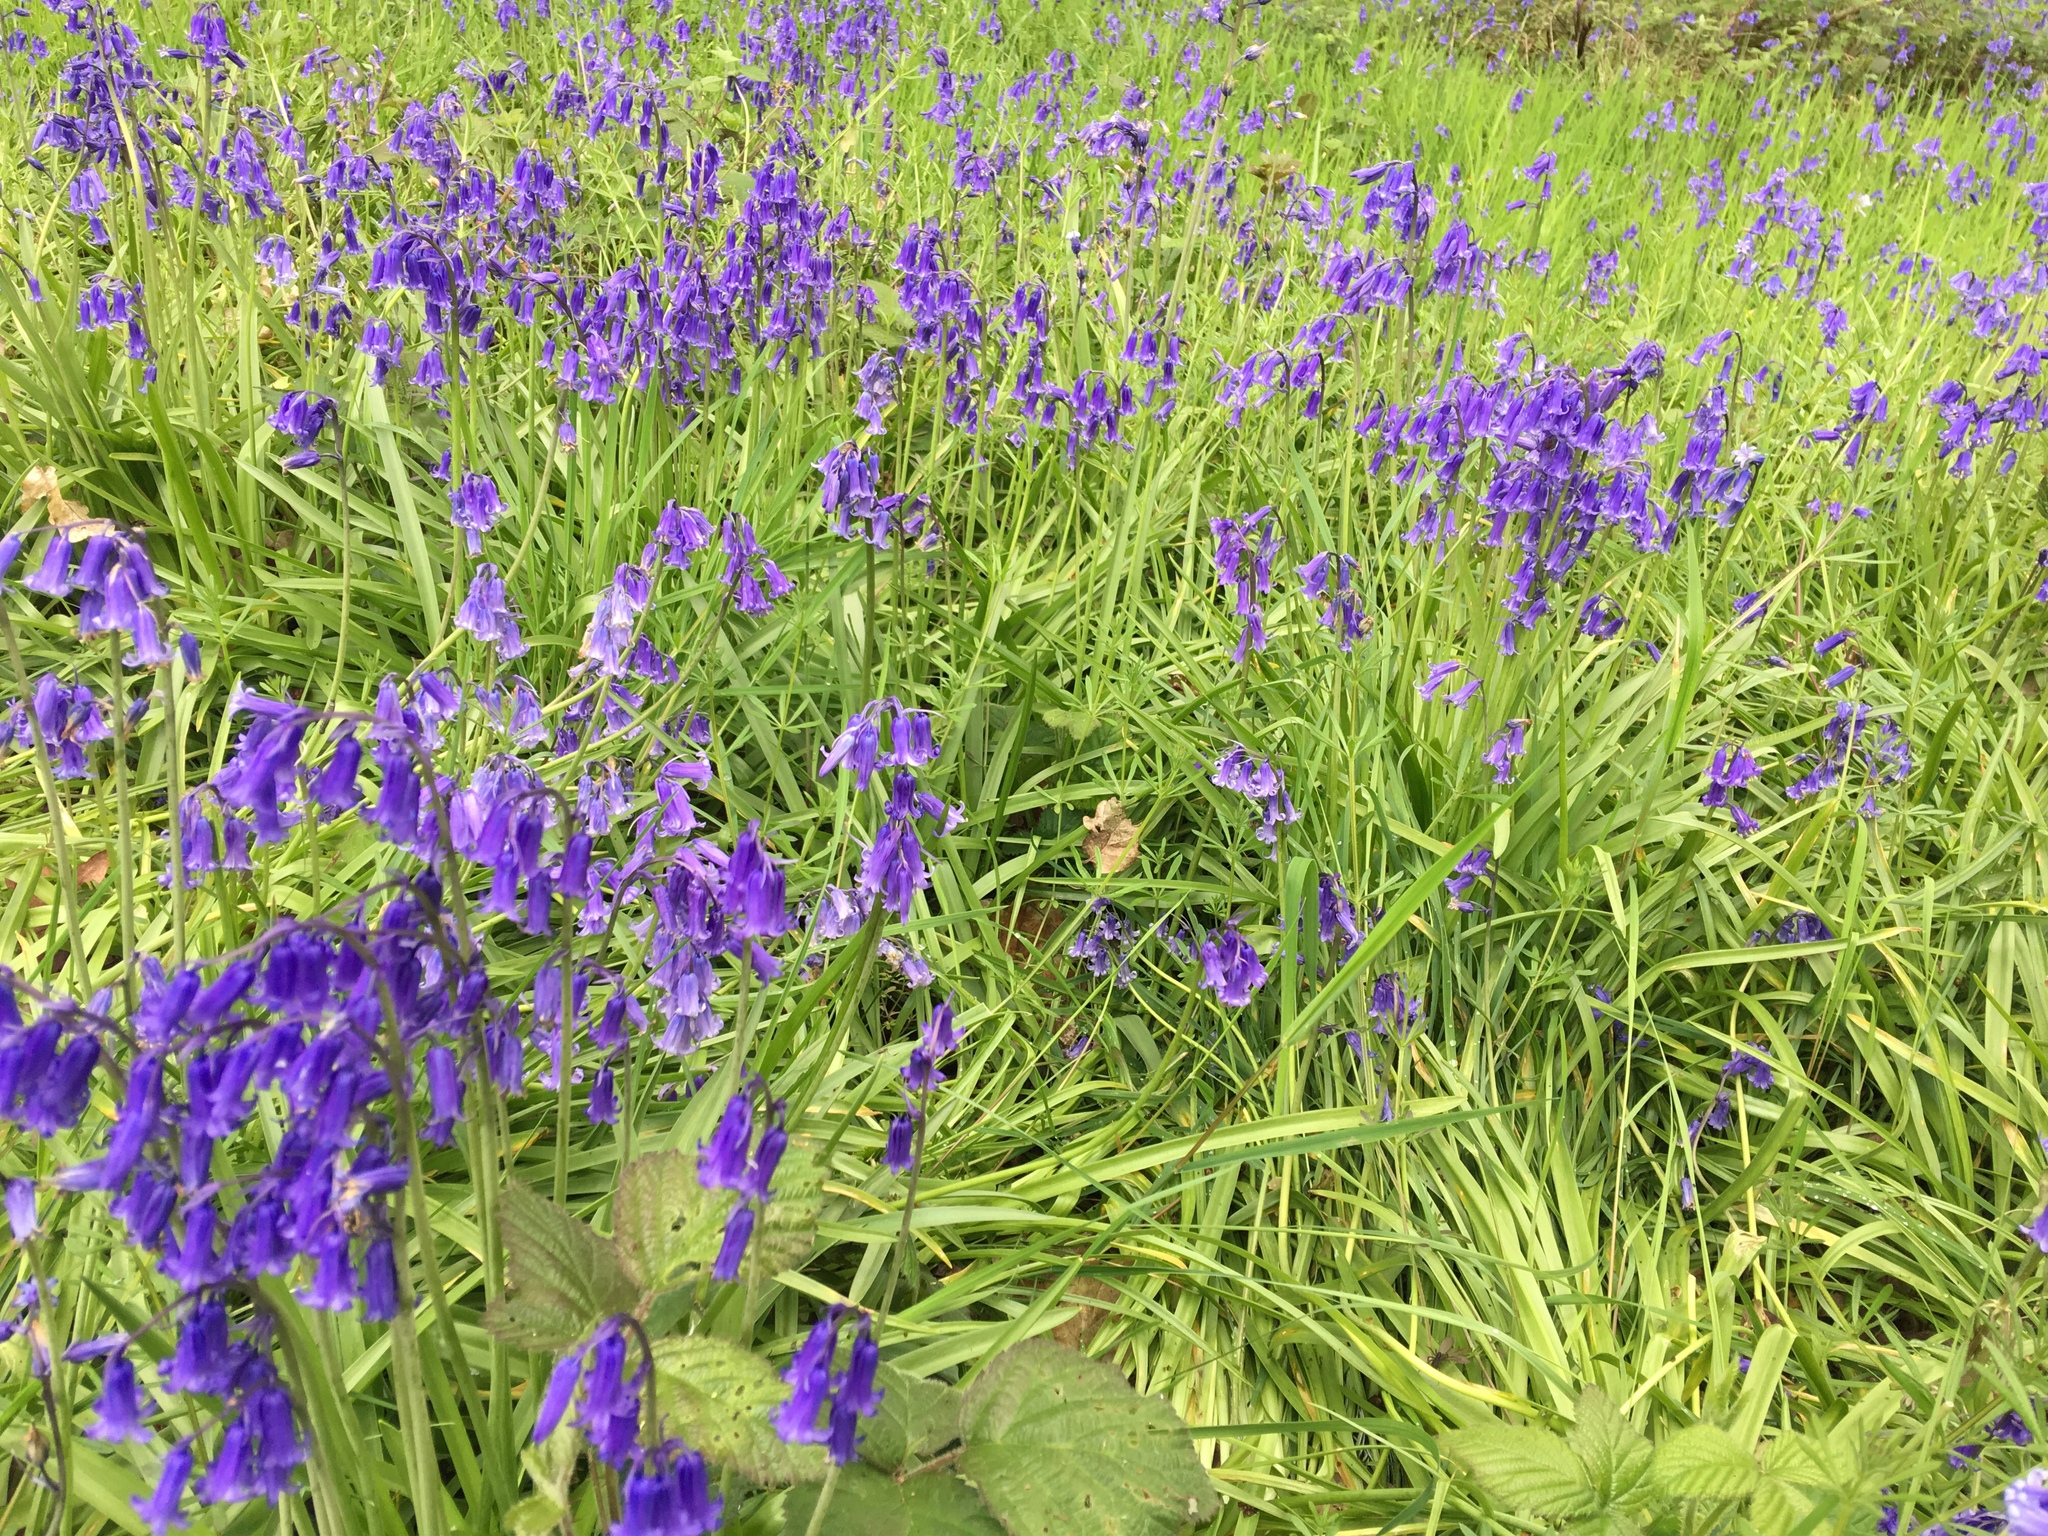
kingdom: Plantae
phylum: Tracheophyta
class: Liliopsida
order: Asparagales
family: Asparagaceae
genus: Hyacinthoides
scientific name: Hyacinthoides non-scripta
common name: Bluebell
